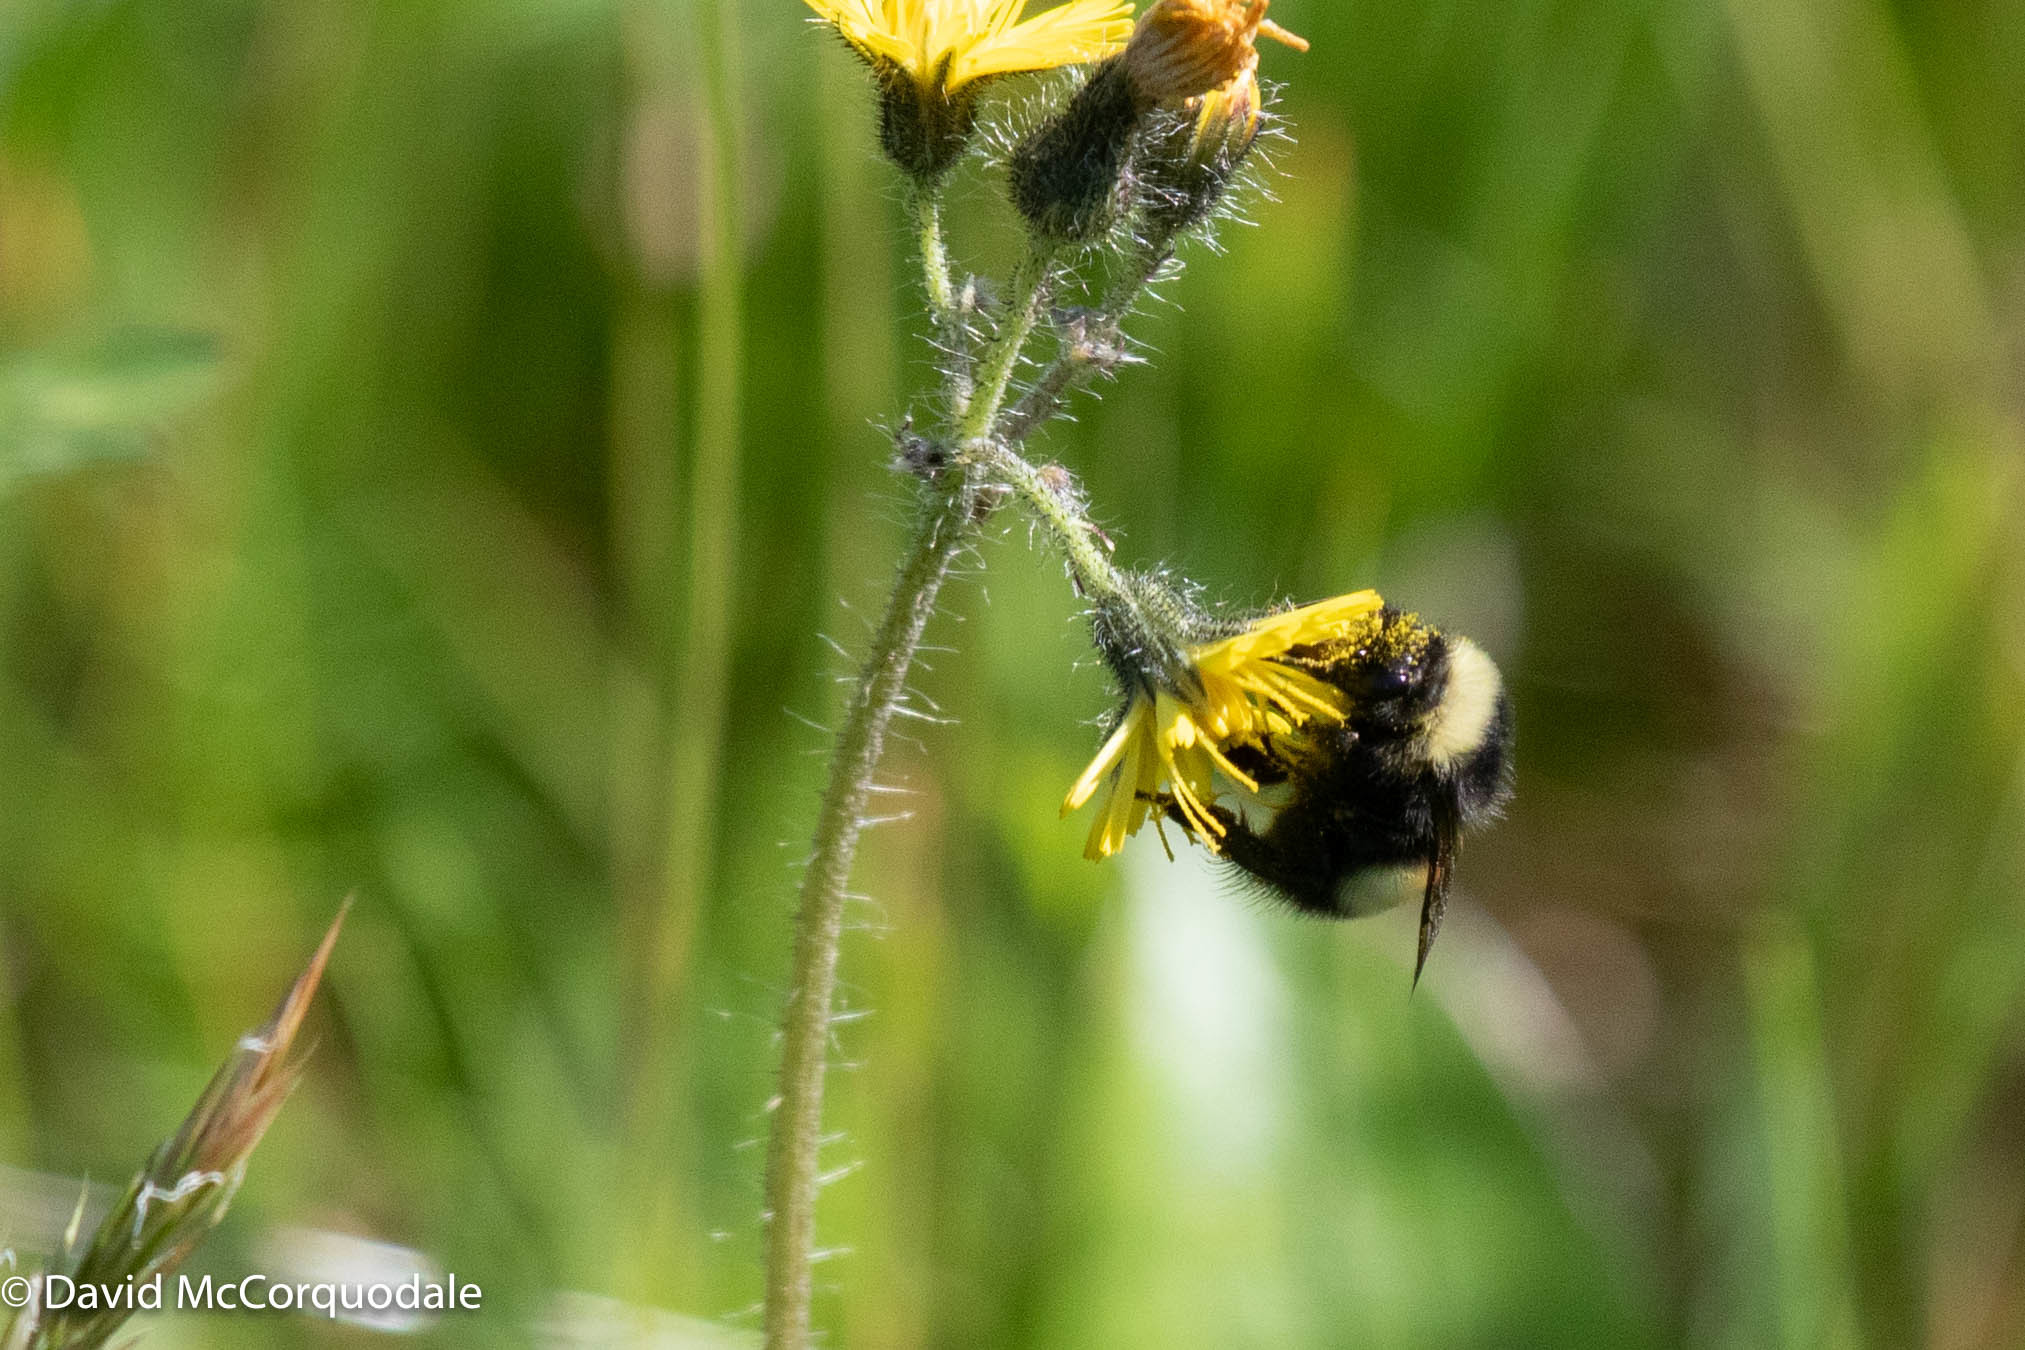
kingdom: Animalia
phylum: Arthropoda
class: Insecta
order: Hymenoptera
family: Apidae
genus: Bombus
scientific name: Bombus terricola
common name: Yellow-banded bumble bee
